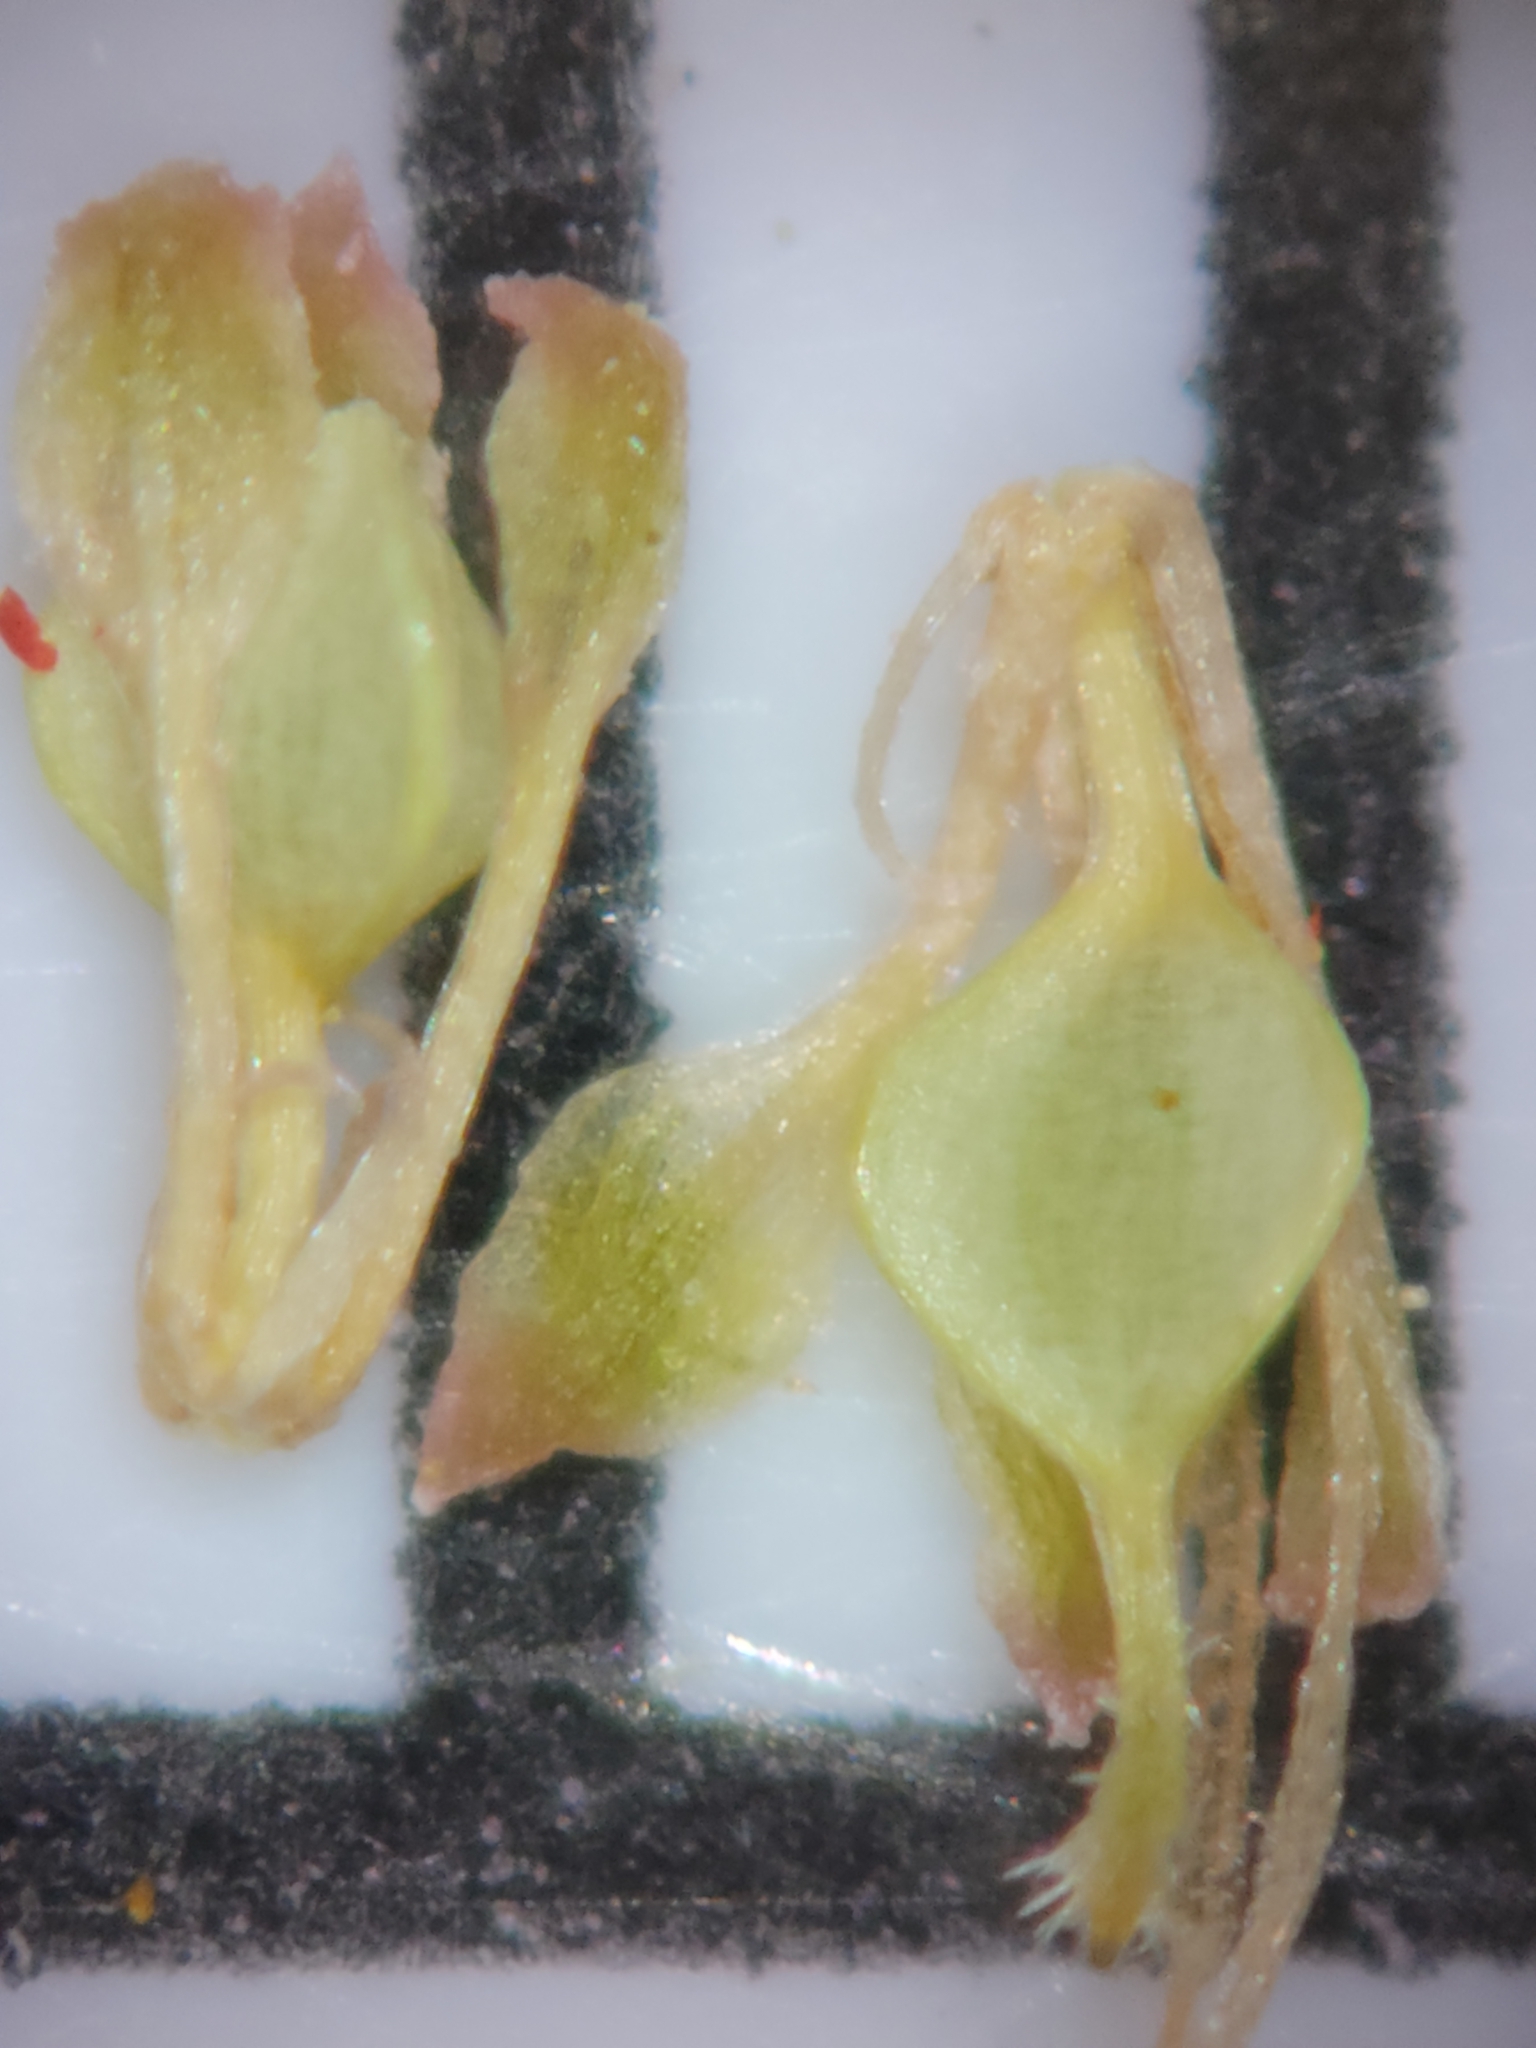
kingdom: Plantae
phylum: Tracheophyta
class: Liliopsida
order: Poales
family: Cyperaceae
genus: Fuirena
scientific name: Fuirena breviseta
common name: Saltmarsh umbrella sedge
